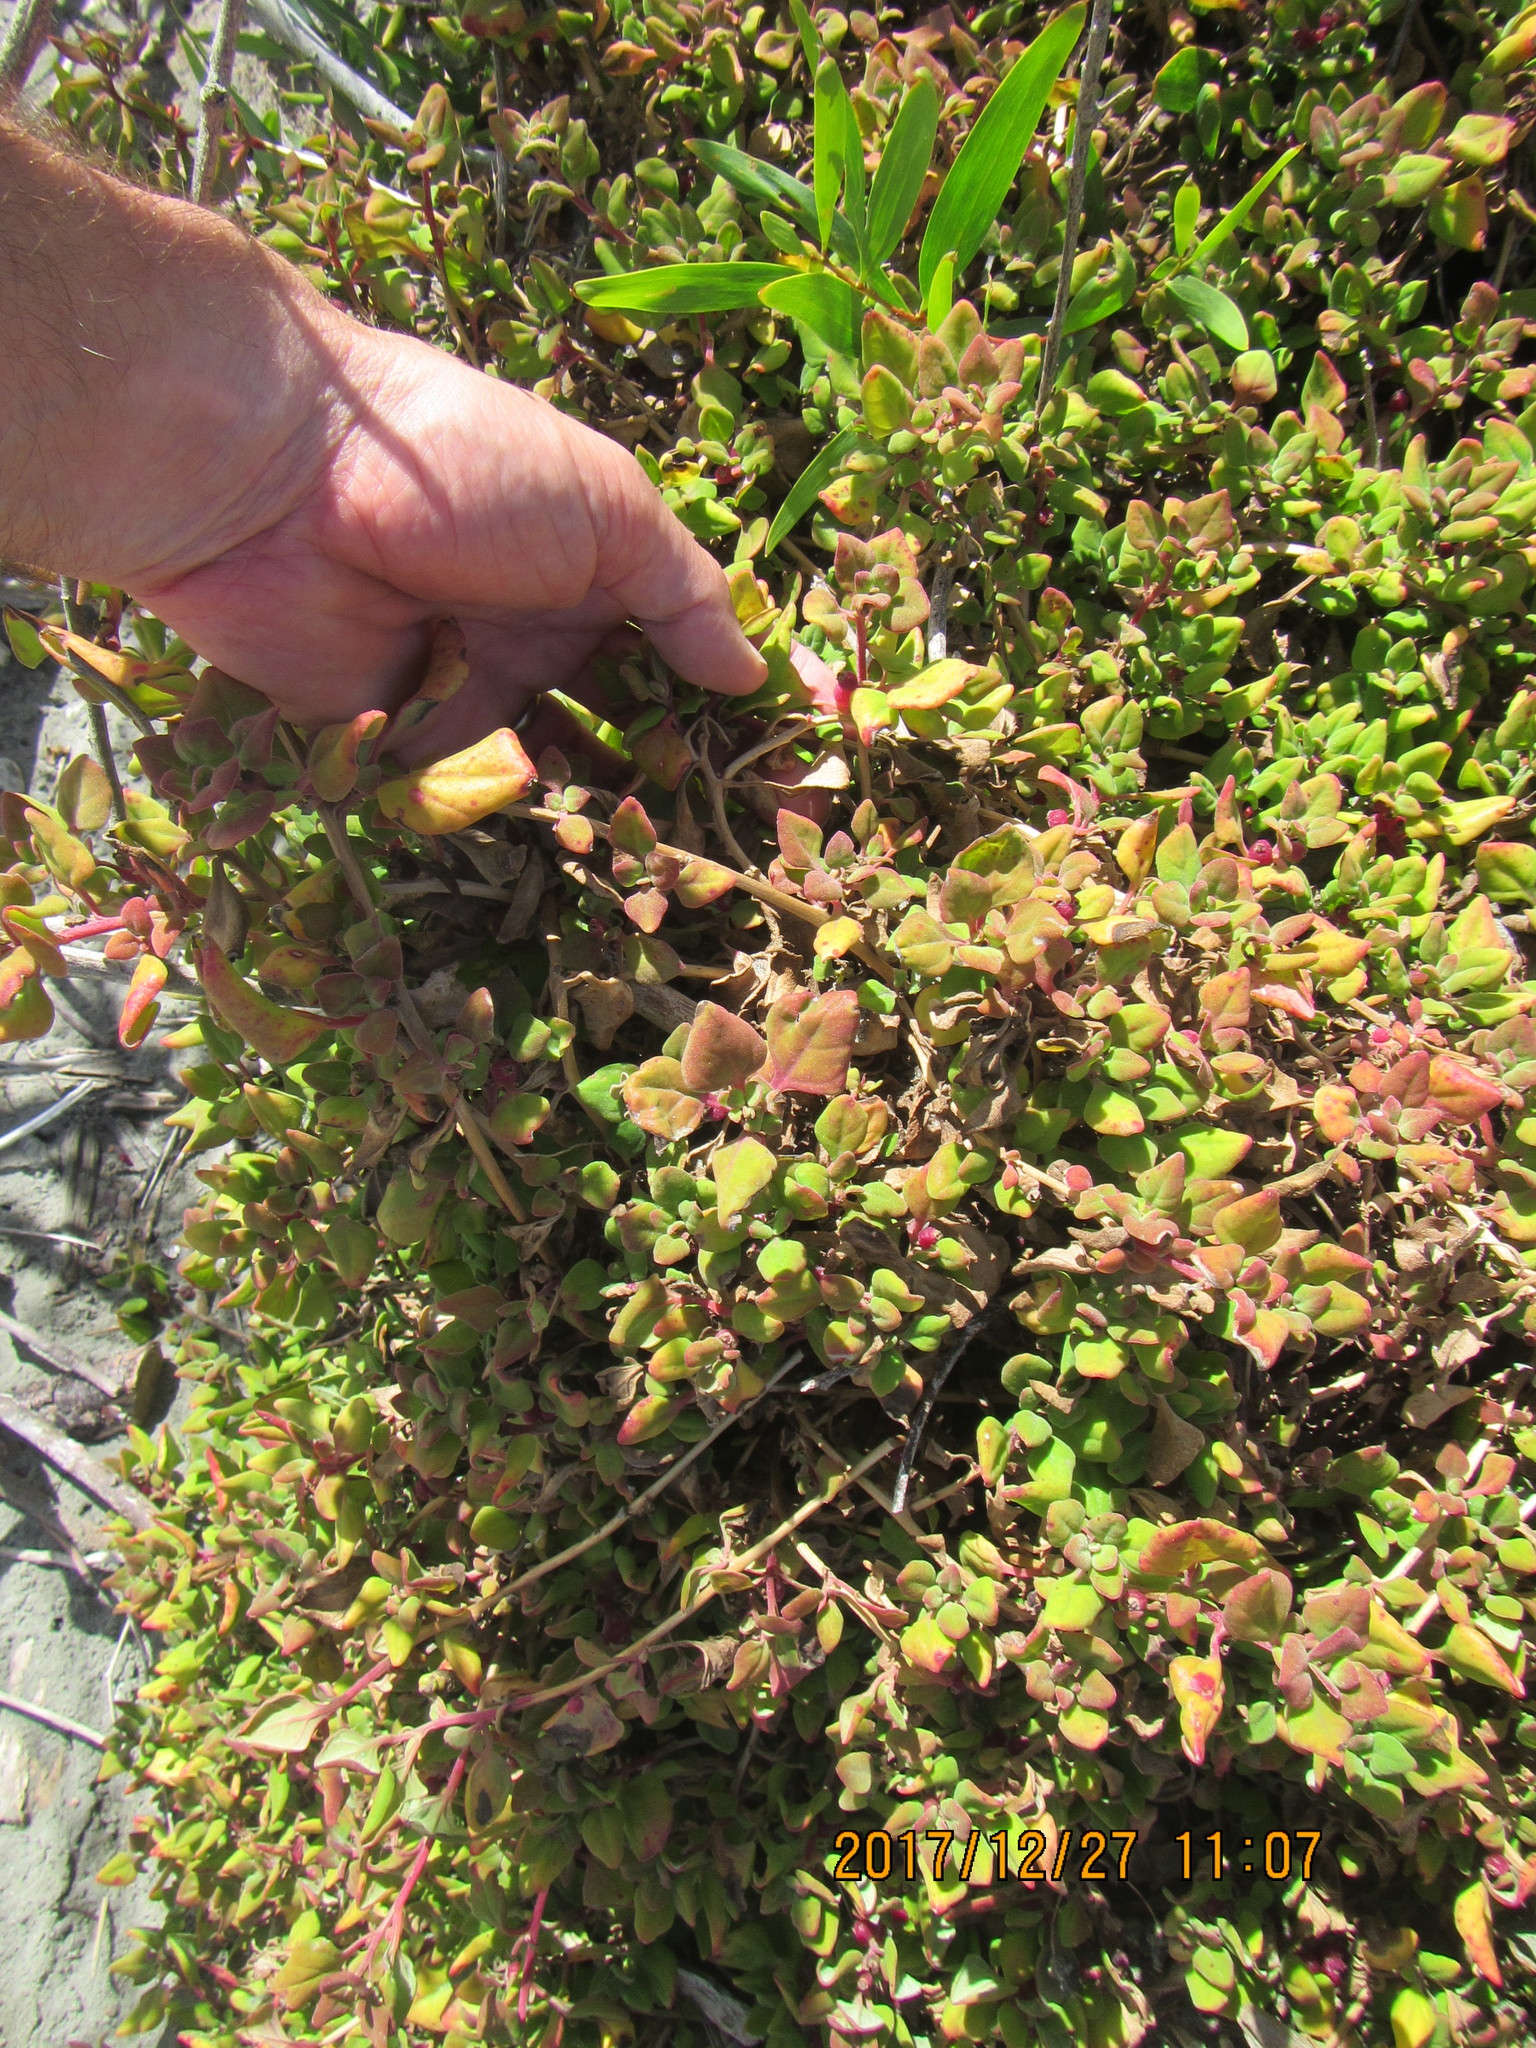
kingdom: Plantae
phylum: Tracheophyta
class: Magnoliopsida
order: Caryophyllales
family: Aizoaceae
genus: Tetragonia
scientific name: Tetragonia implexicoma
